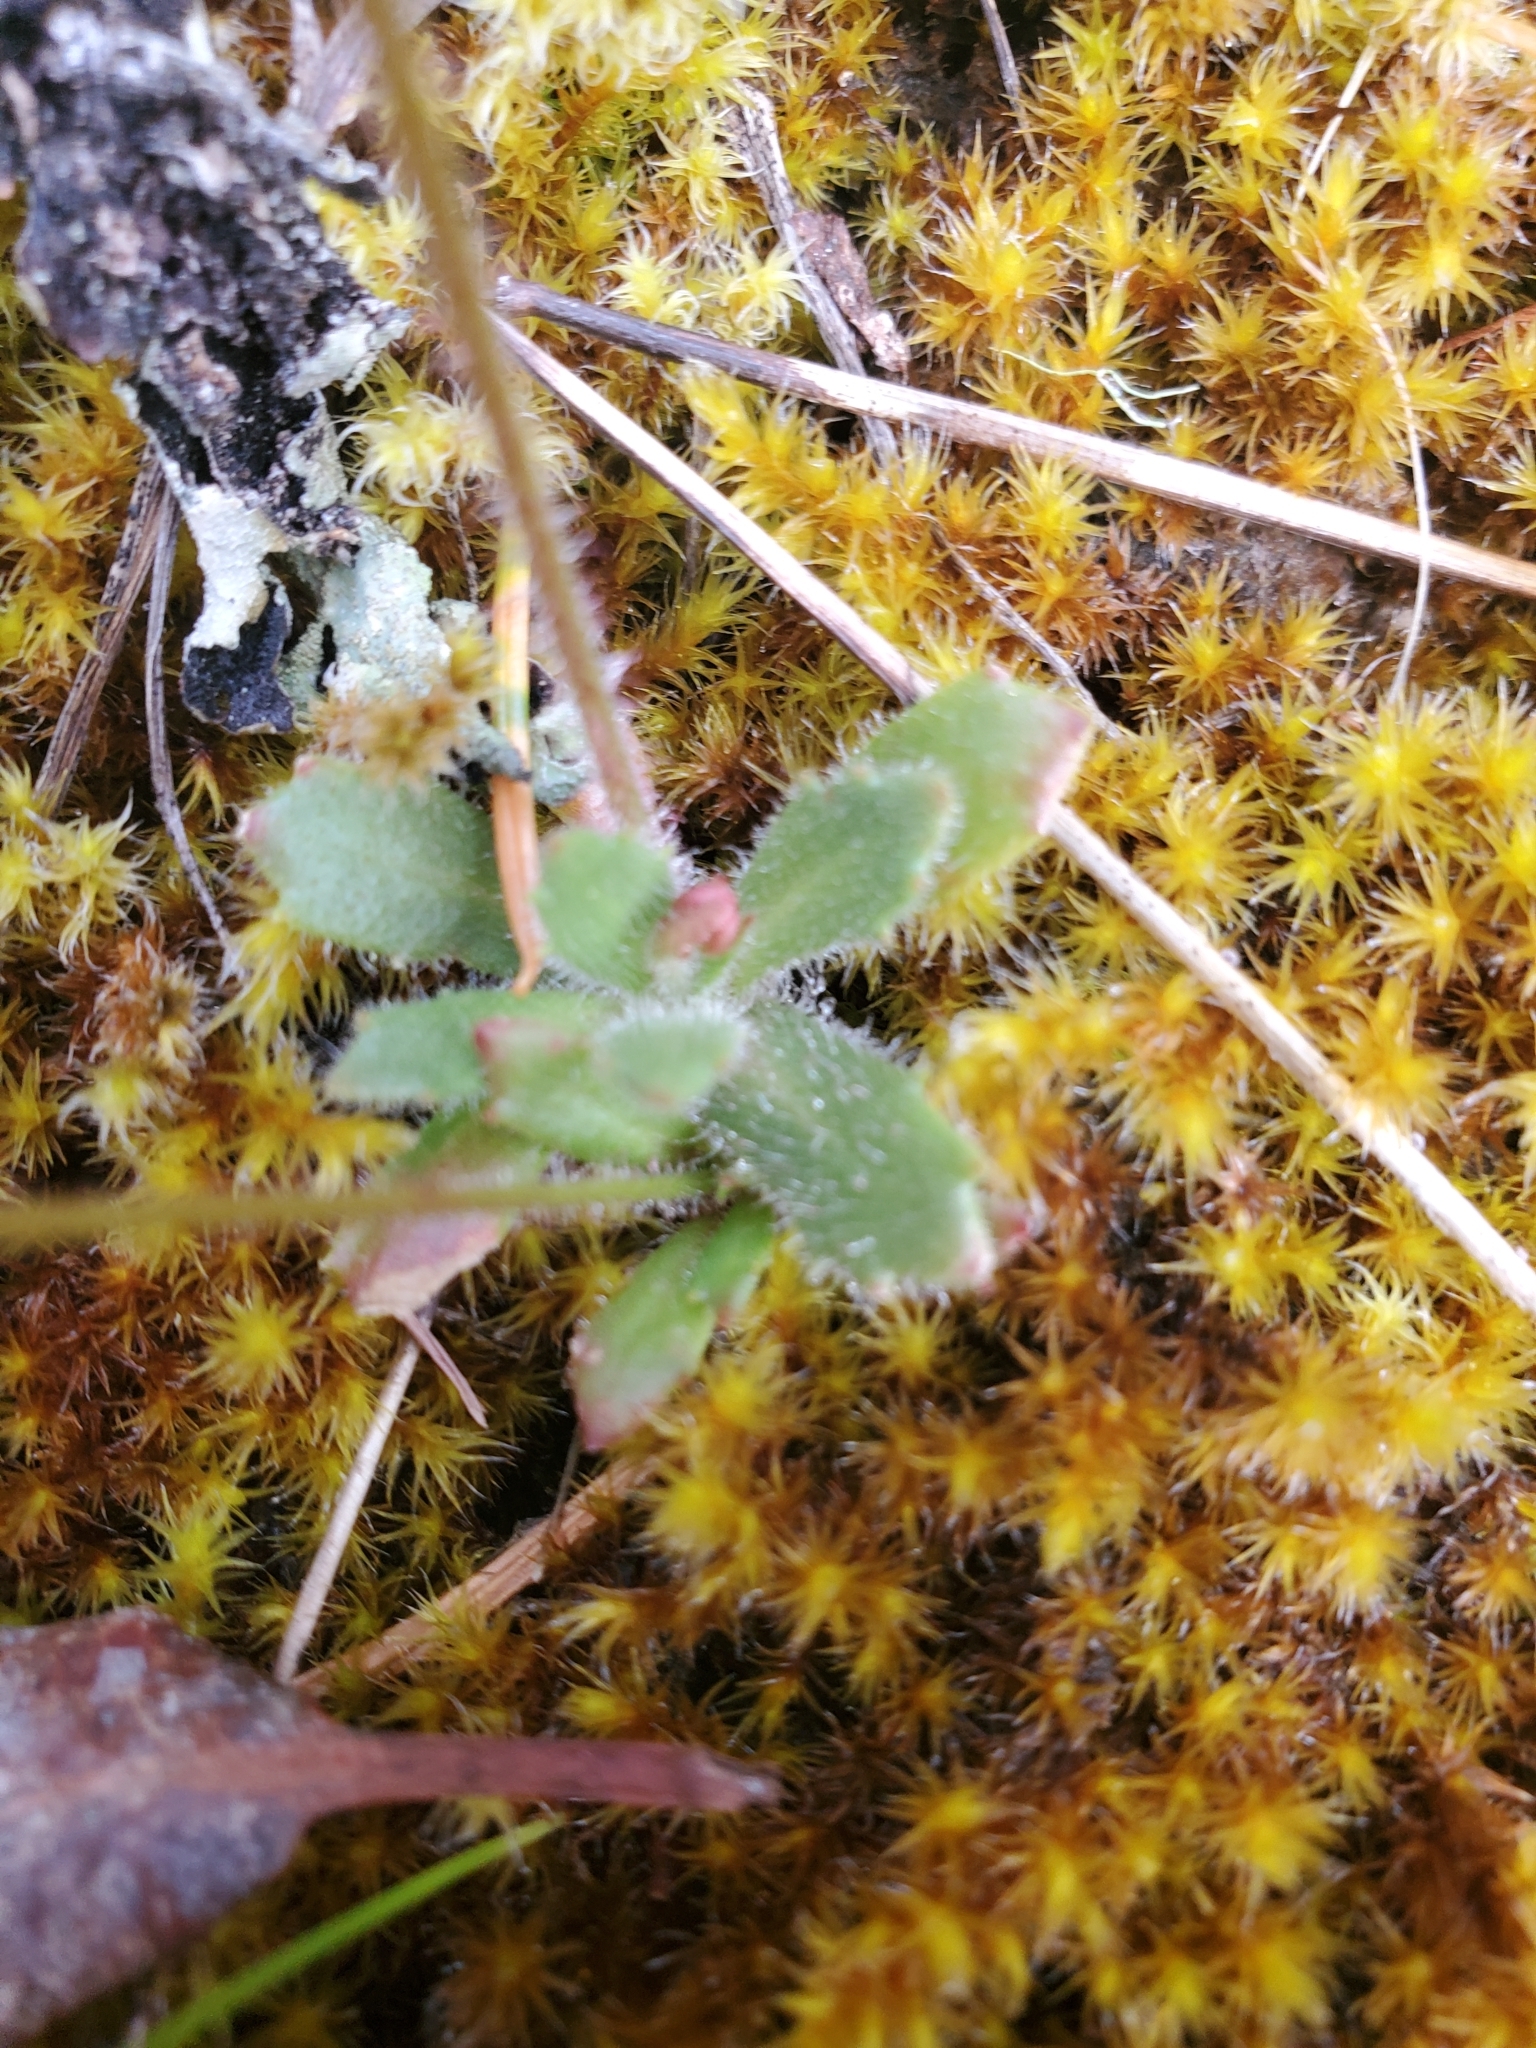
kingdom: Plantae
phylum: Tracheophyta
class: Magnoliopsida
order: Saxifragales
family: Saxifragaceae
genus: Micranthes
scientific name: Micranthes ferruginea
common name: Rusty saxifrage
